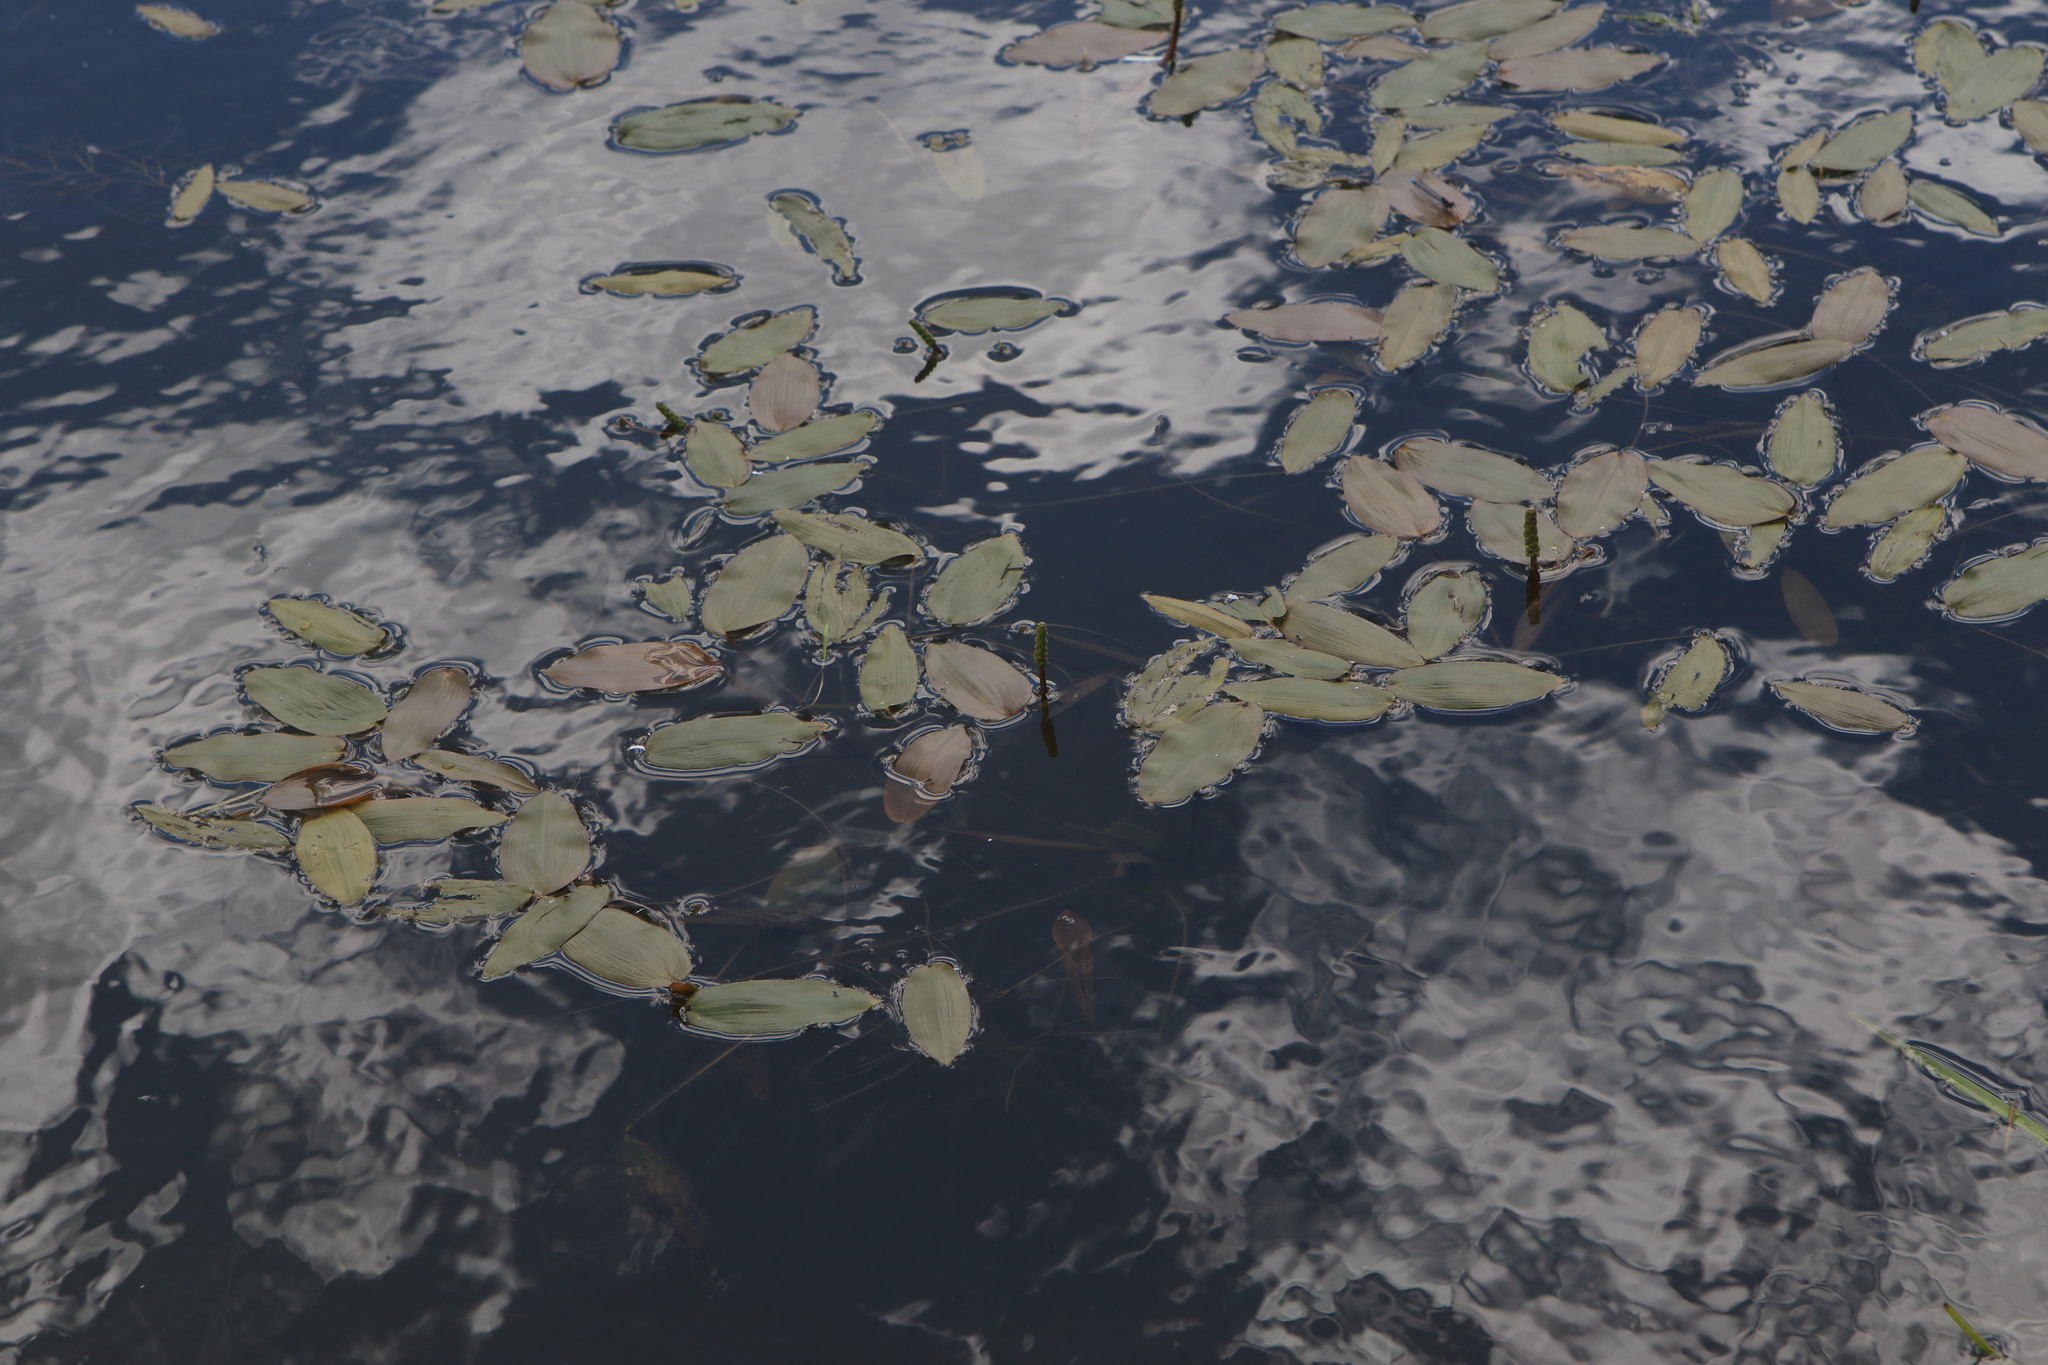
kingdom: Plantae
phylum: Tracheophyta
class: Liliopsida
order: Alismatales
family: Potamogetonaceae
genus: Potamogeton
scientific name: Potamogeton natans
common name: Broad-leaved pondweed
